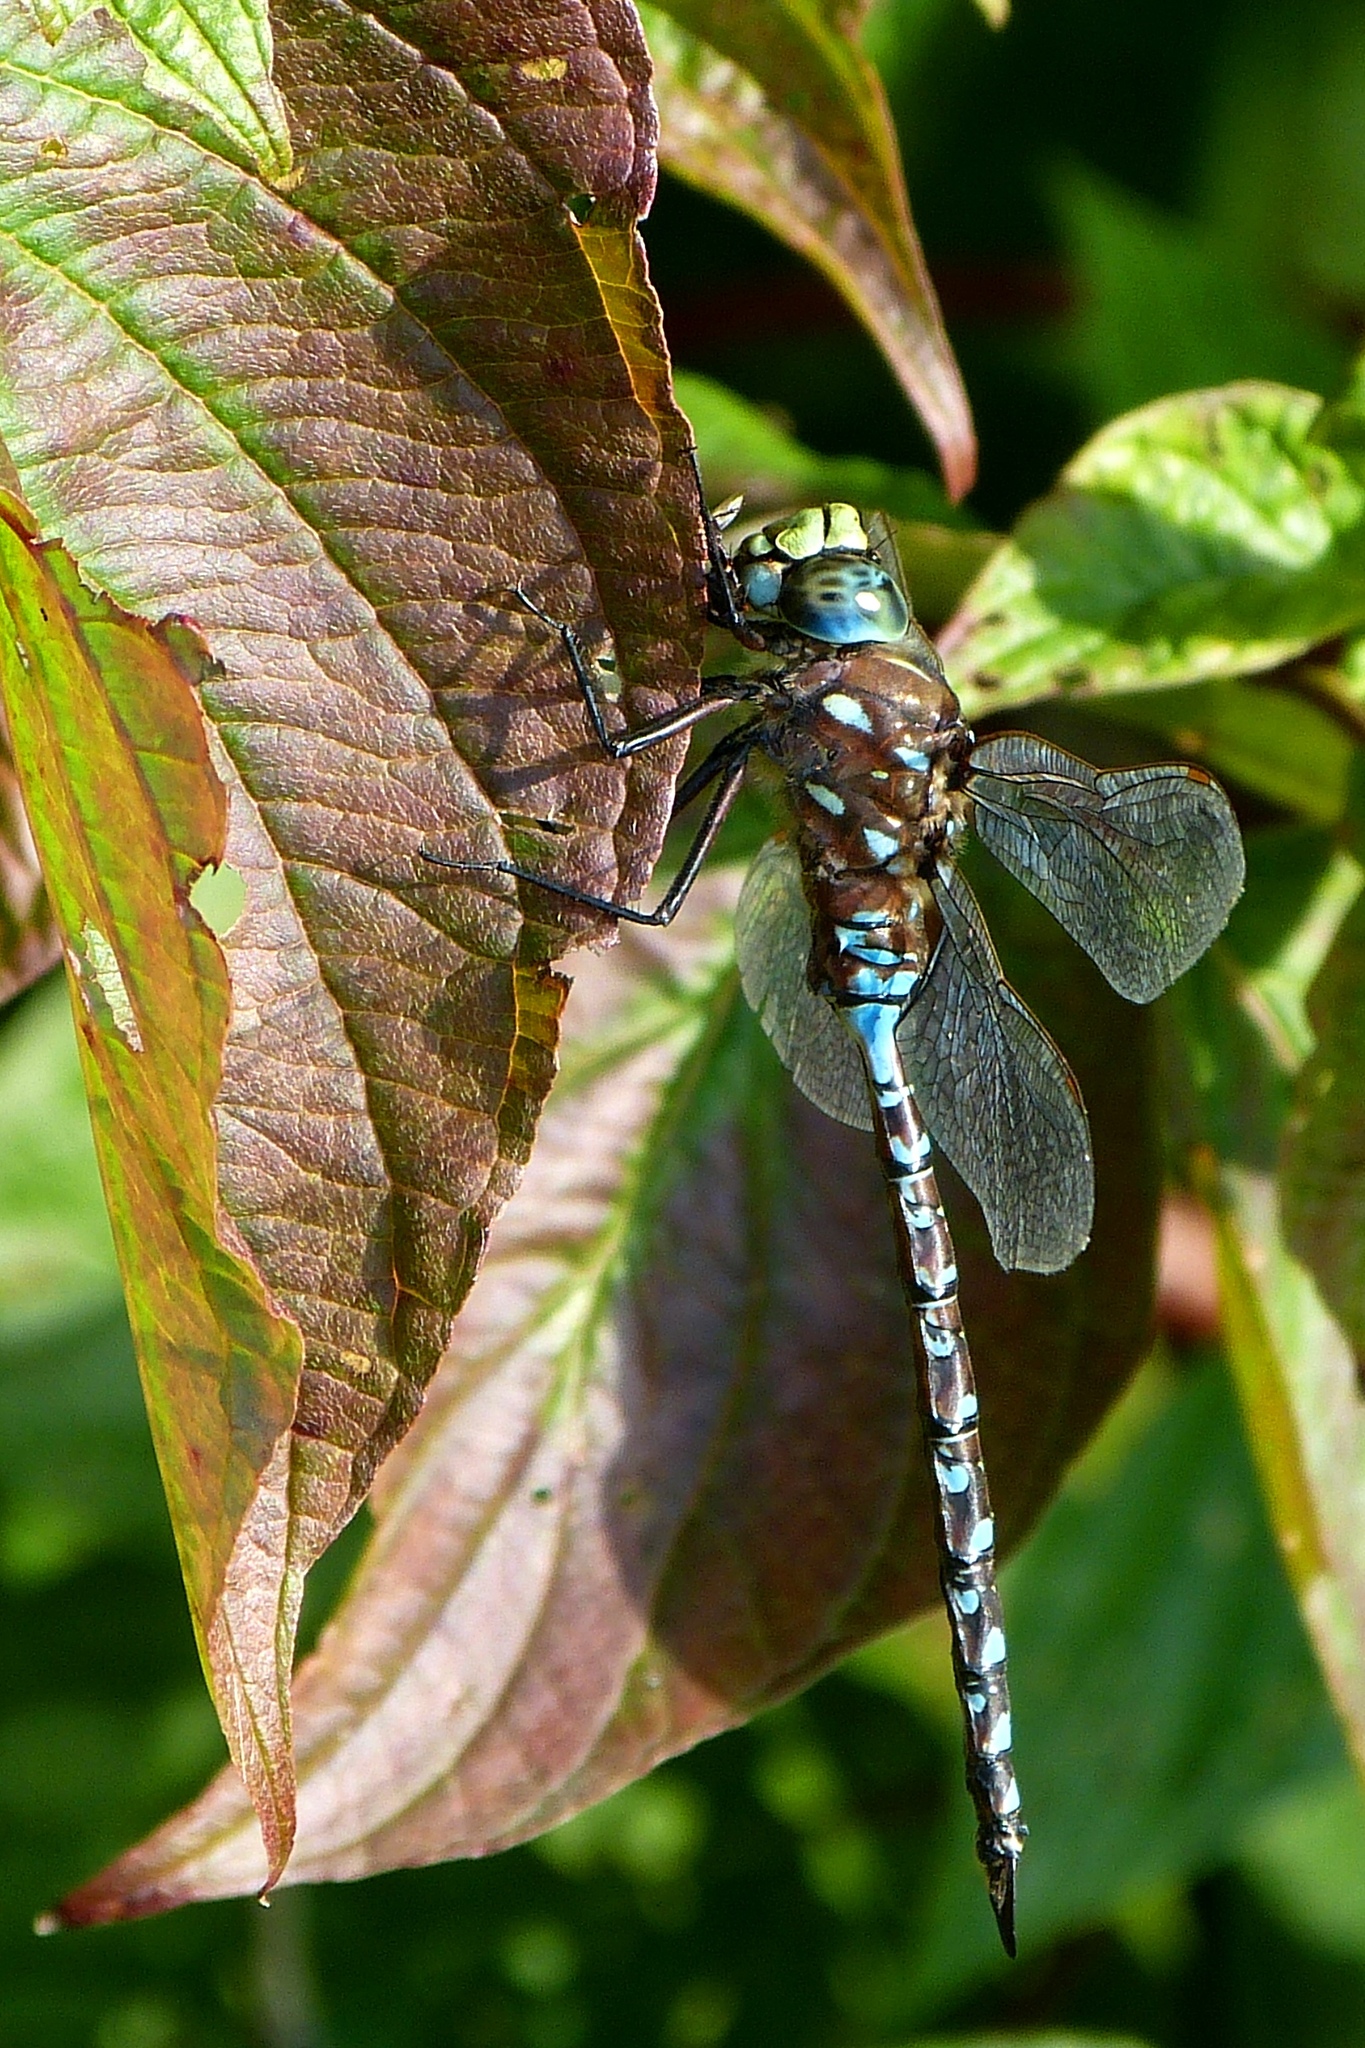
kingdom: Animalia
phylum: Arthropoda
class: Insecta
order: Odonata
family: Aeshnidae
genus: Aeshna
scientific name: Aeshna interrupta
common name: Variable darner
